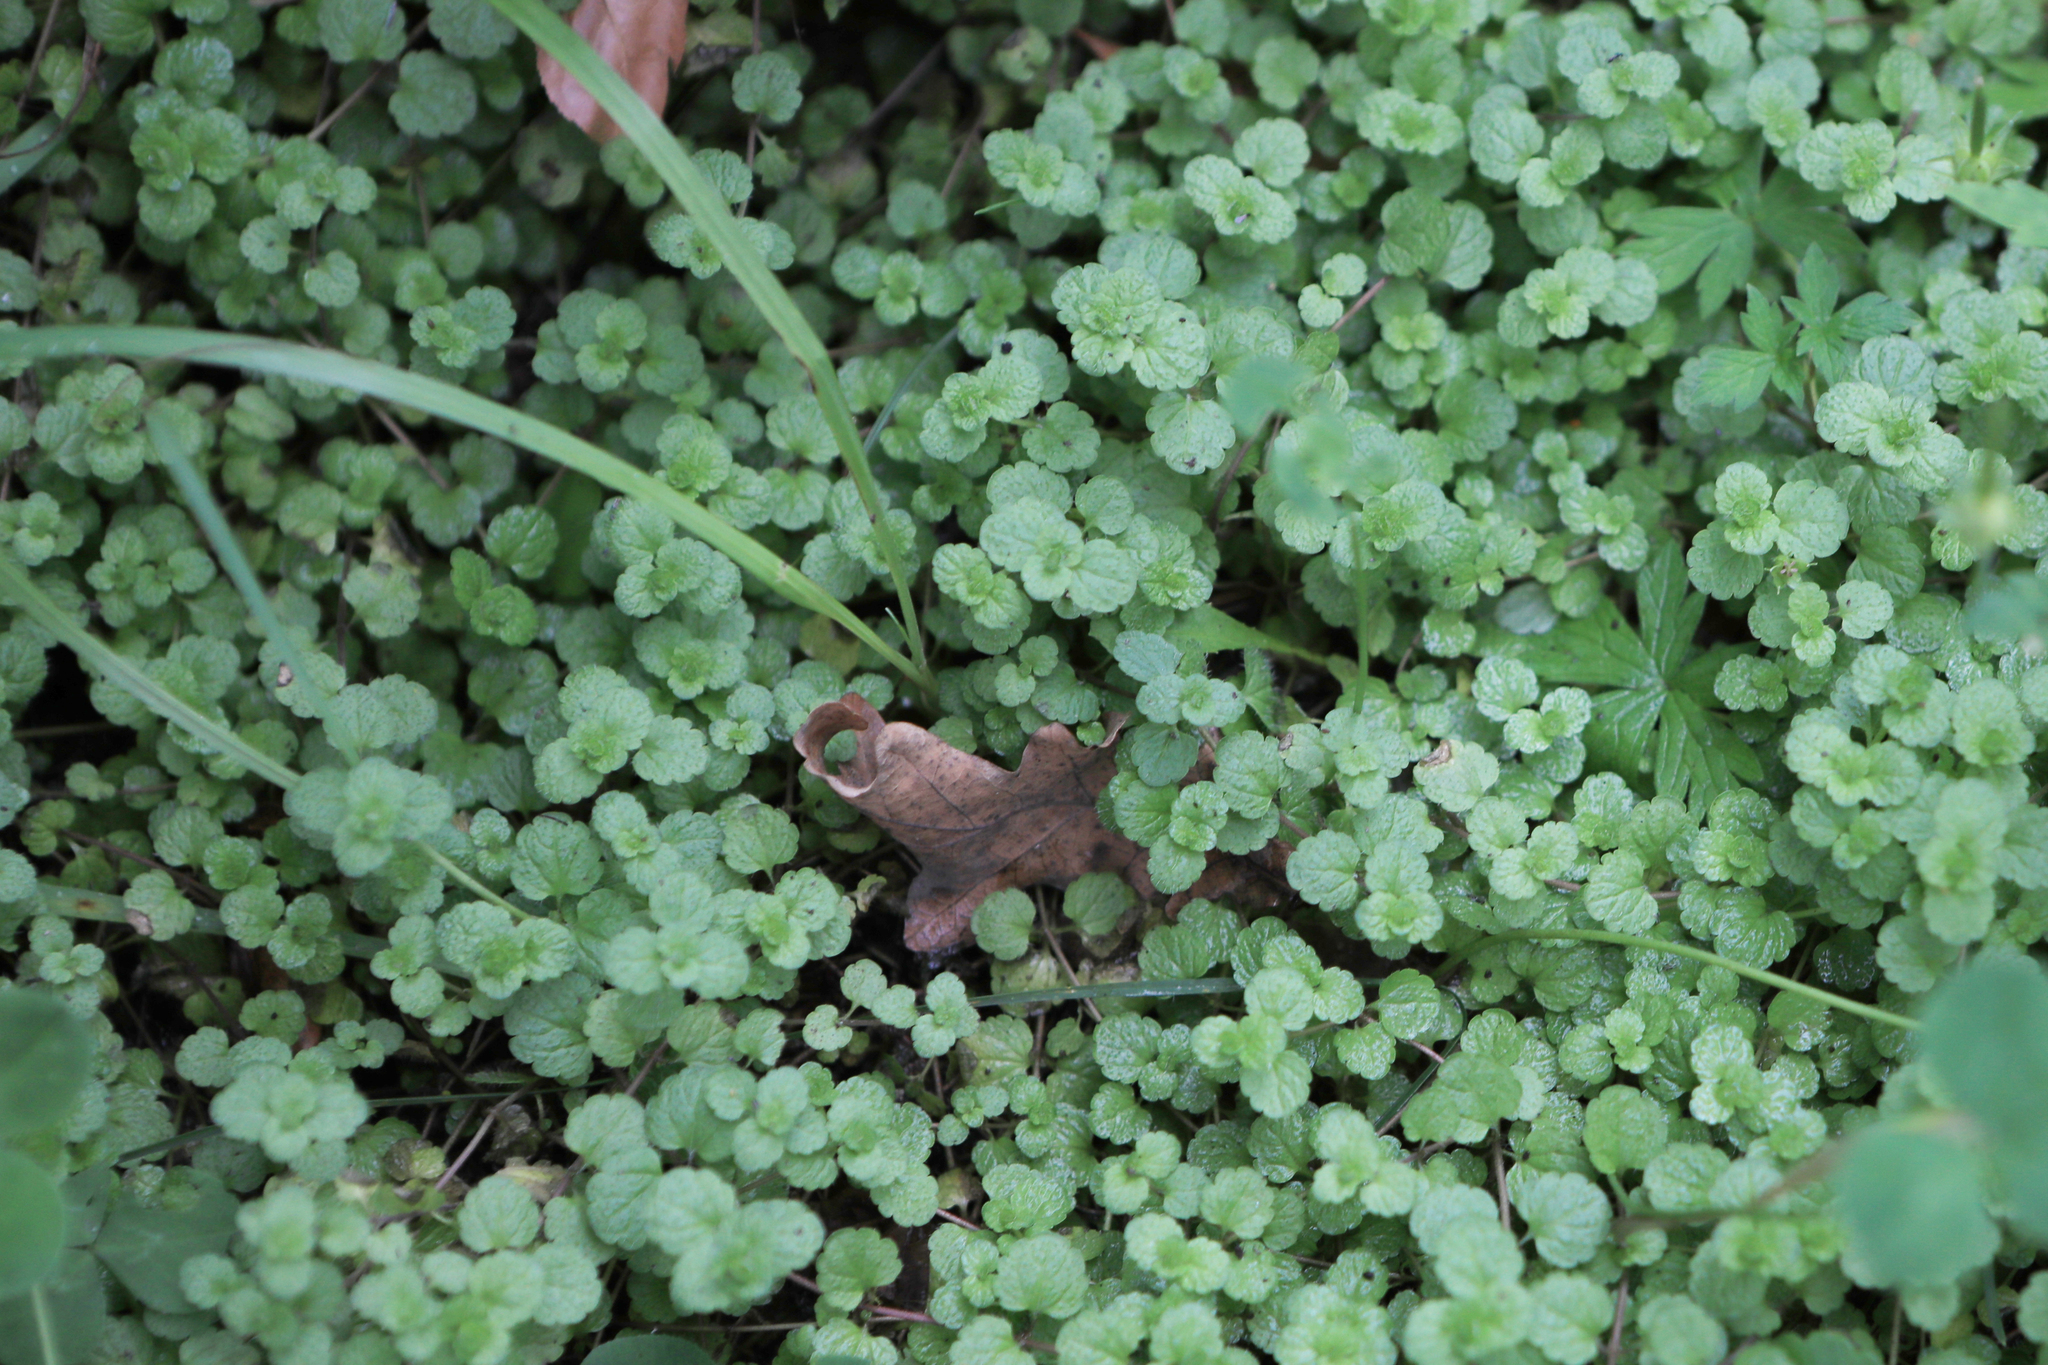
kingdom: Plantae
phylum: Tracheophyta
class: Magnoliopsida
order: Lamiales
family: Plantaginaceae
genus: Veronica
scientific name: Veronica filiformis
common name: Slender speedwell
